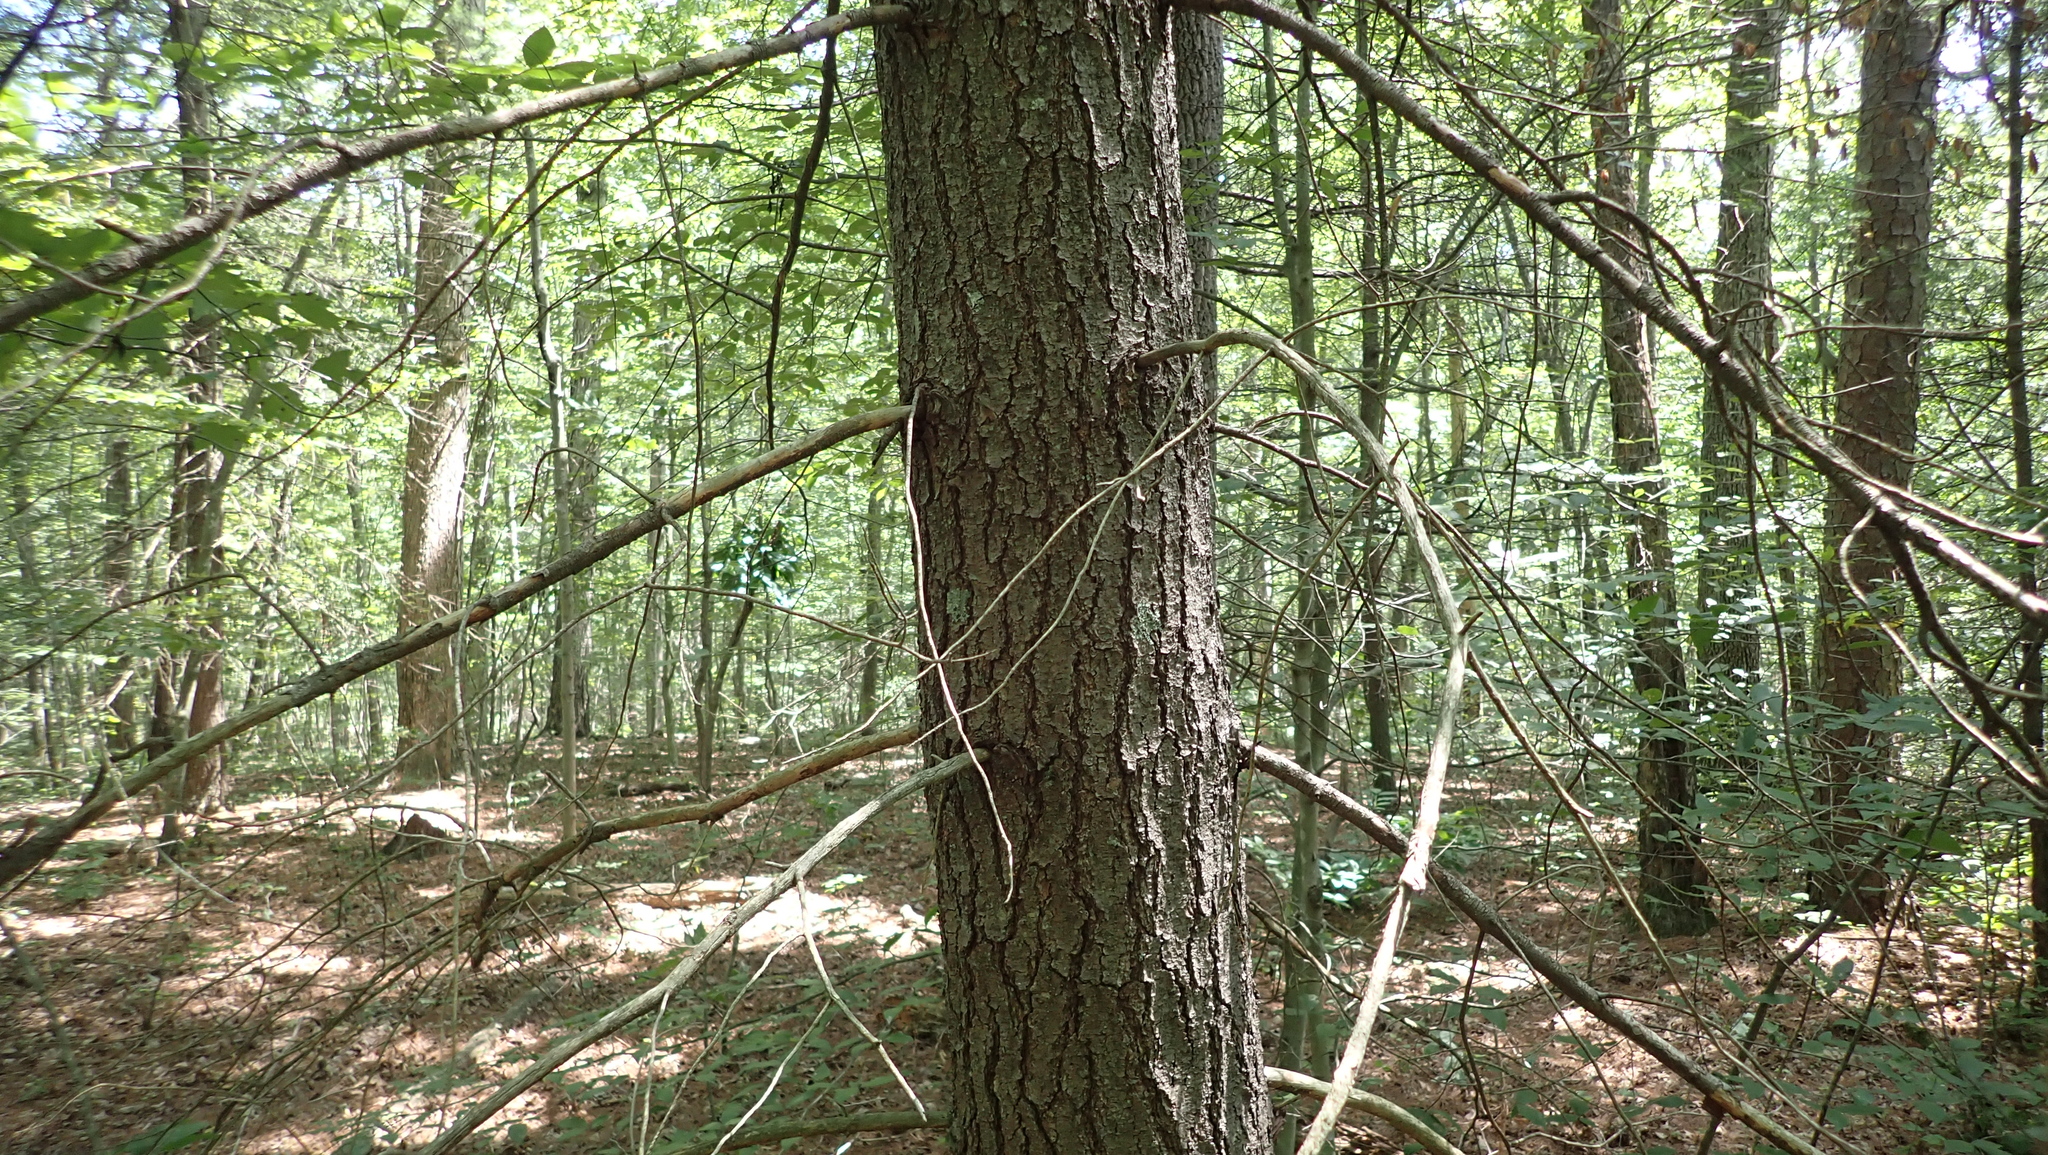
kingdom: Plantae
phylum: Tracheophyta
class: Pinopsida
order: Pinales
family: Pinaceae
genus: Pinus
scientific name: Pinus strobus
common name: Weymouth pine
